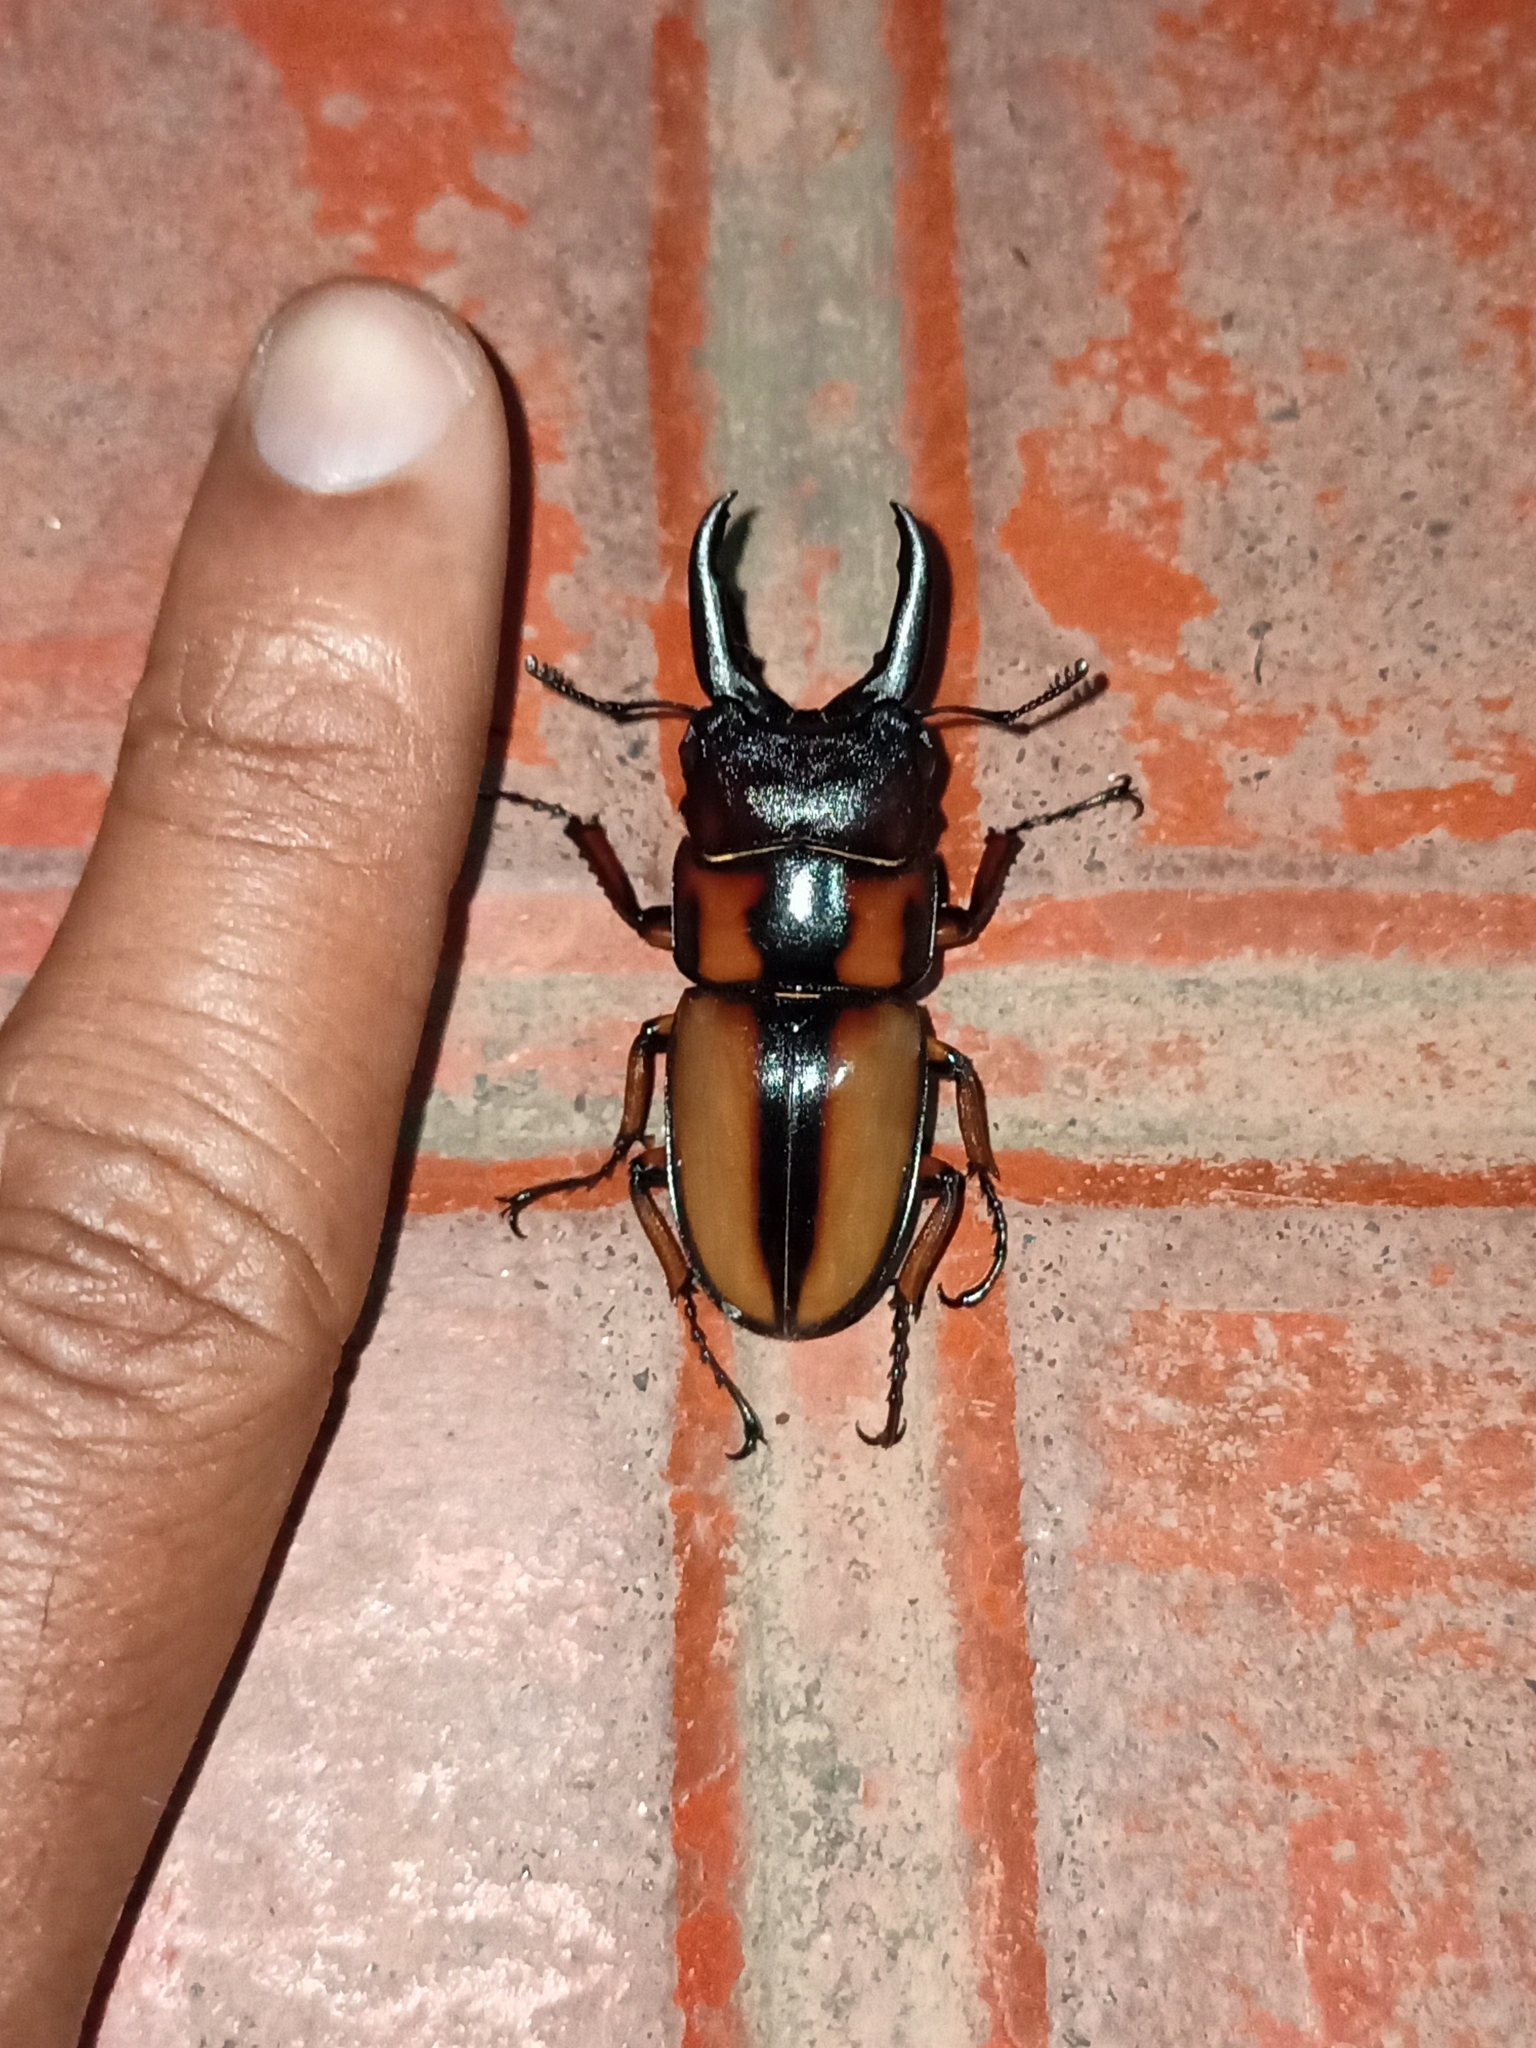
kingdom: Animalia
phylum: Arthropoda
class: Insecta
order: Coleoptera
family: Lucanidae
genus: Prosopocoilus
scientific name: Prosopocoilus biplagiatus
